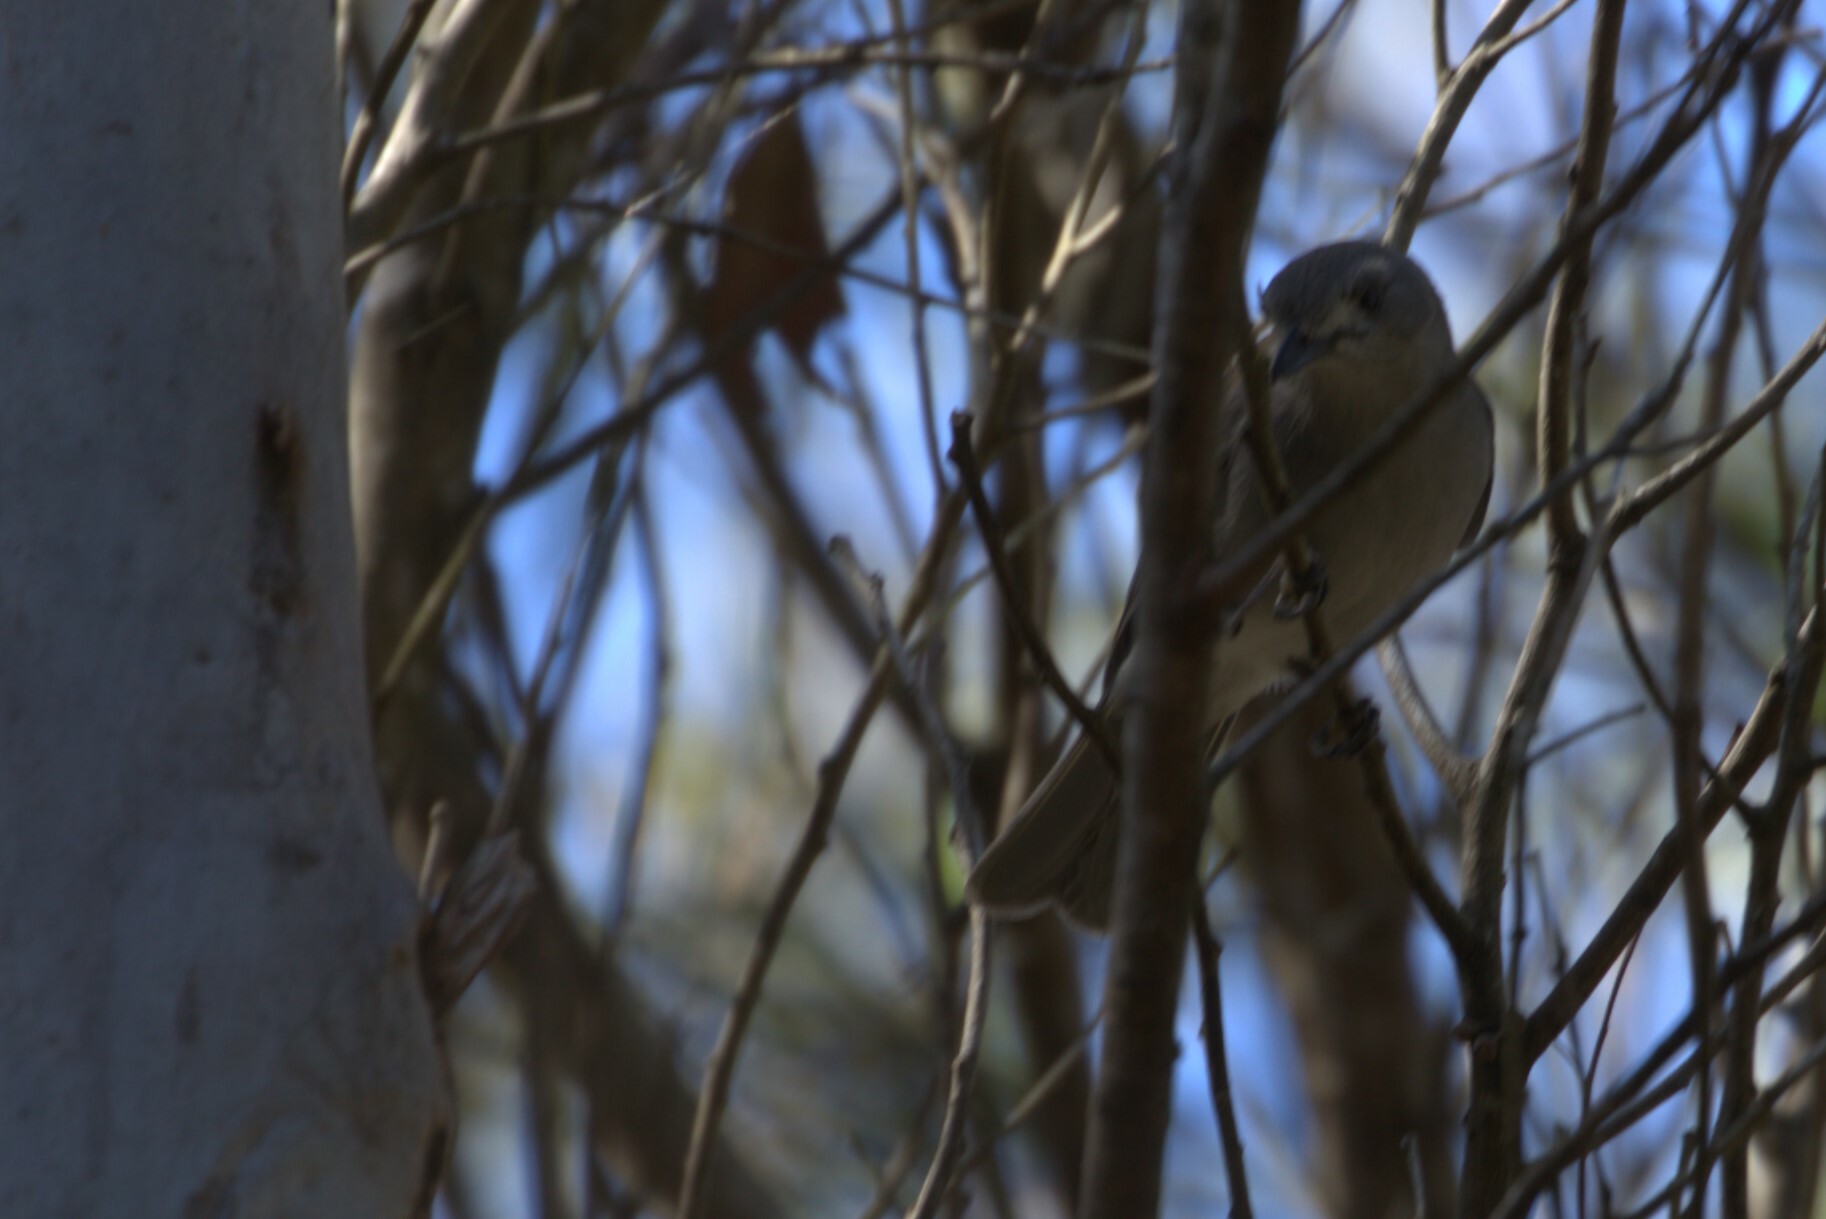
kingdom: Animalia
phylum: Chordata
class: Aves
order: Passeriformes
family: Pachycephalidae
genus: Colluricincla
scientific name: Colluricincla harmonica
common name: Grey shrikethrush
